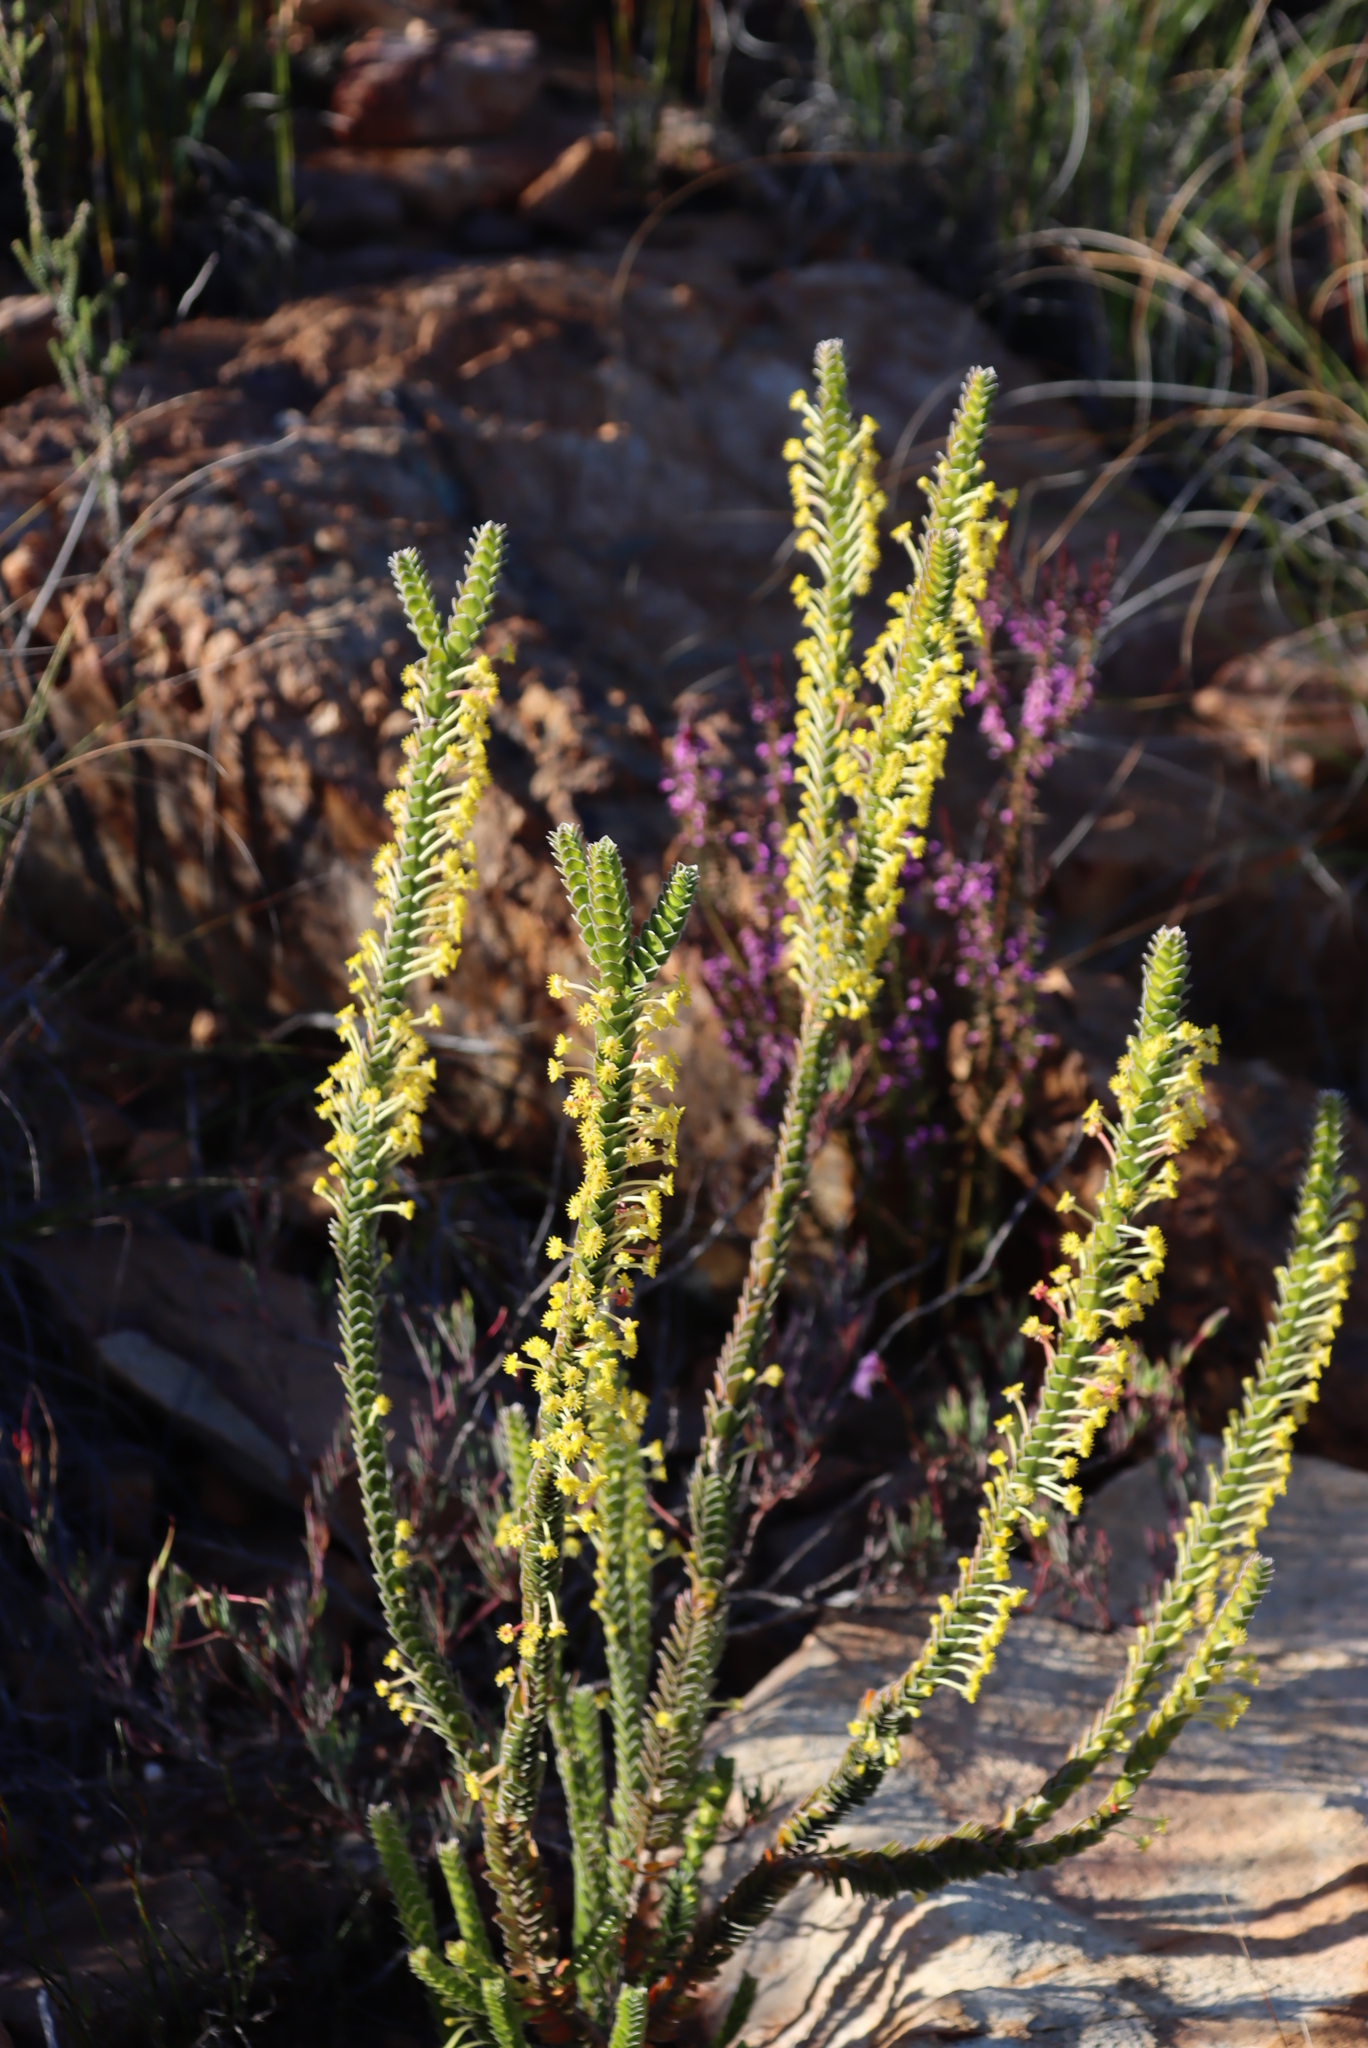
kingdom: Plantae
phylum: Tracheophyta
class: Magnoliopsida
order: Malvales
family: Thymelaeaceae
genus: Struthiola
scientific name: Struthiola argentea
